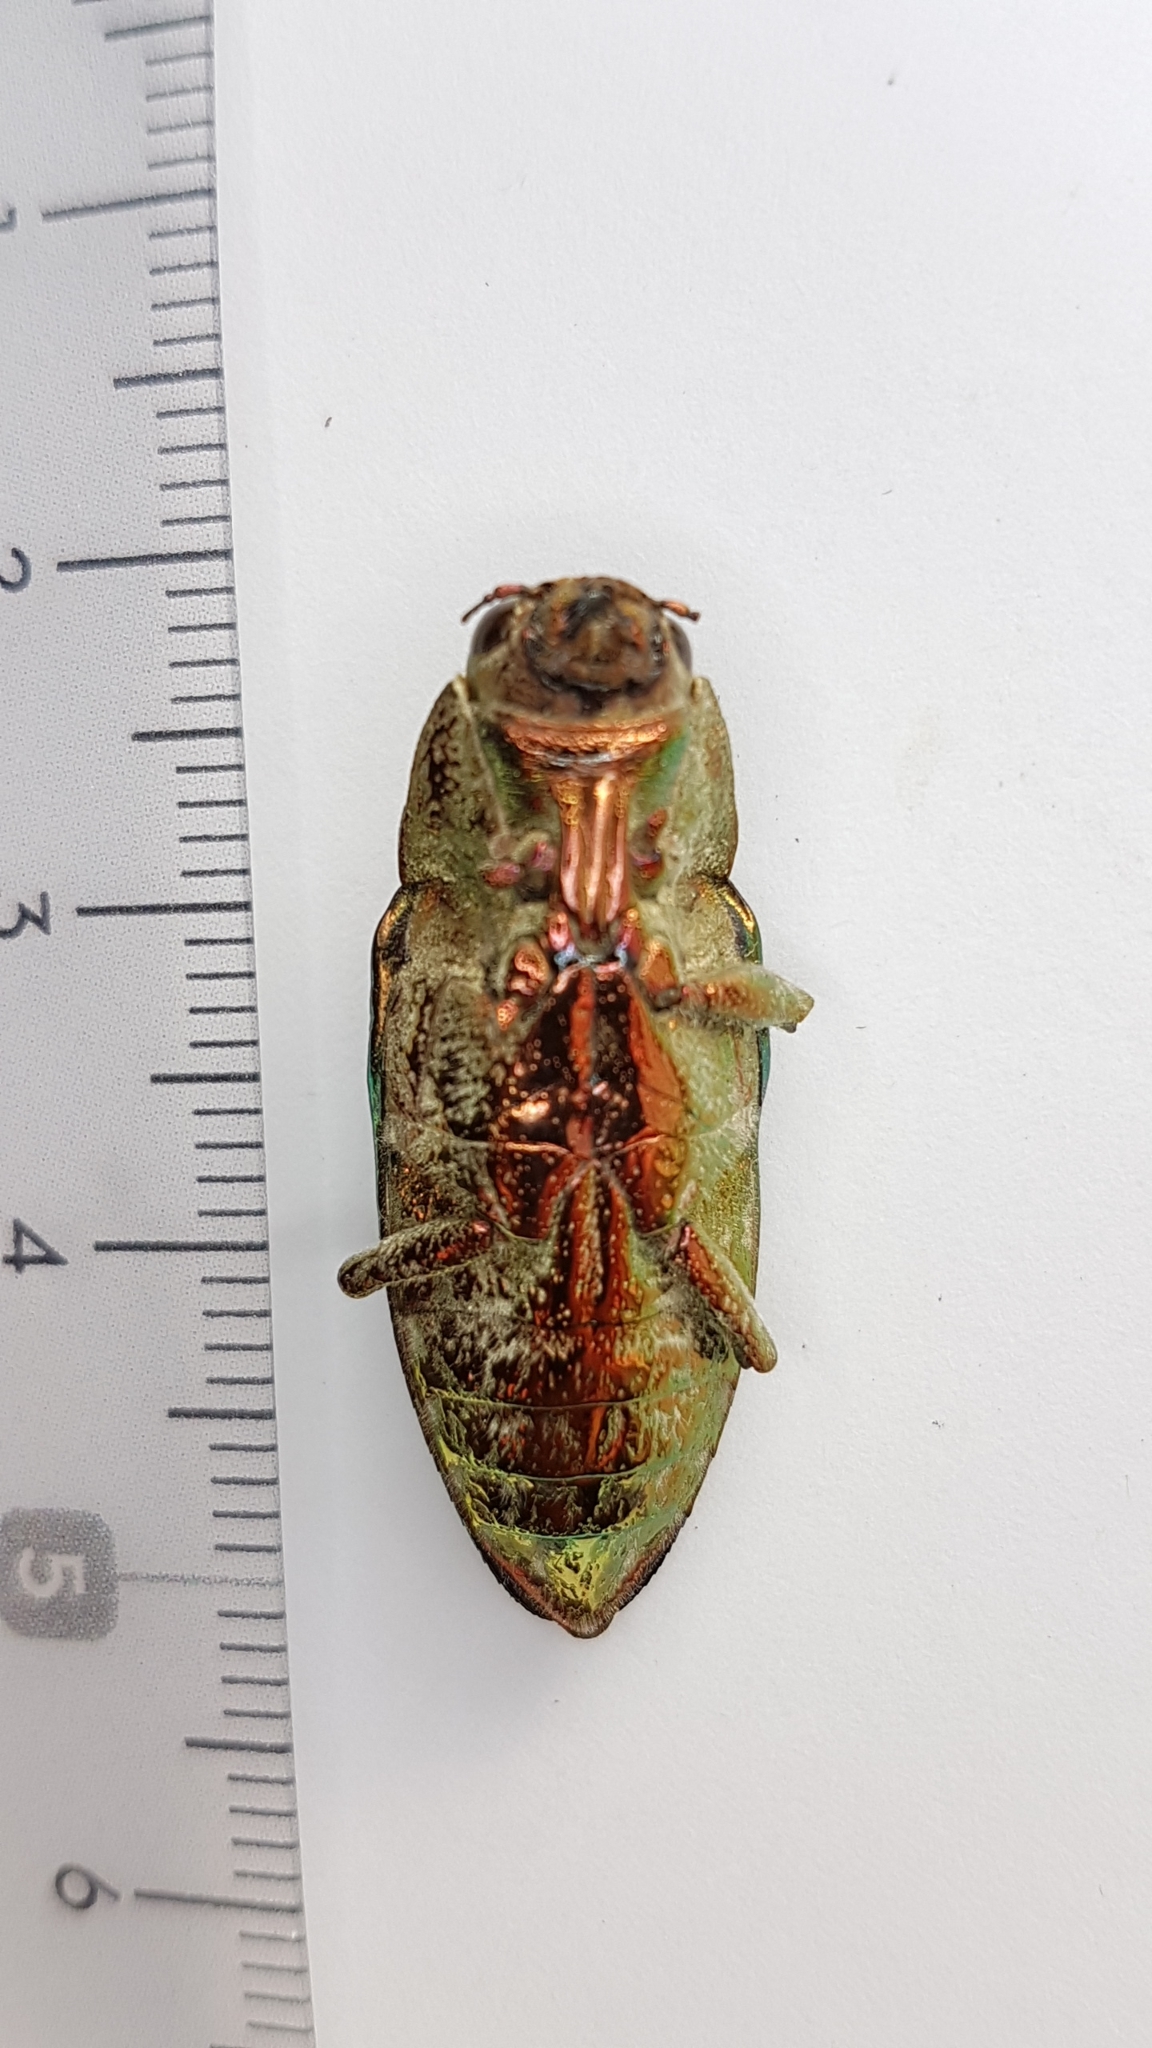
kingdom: Animalia
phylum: Arthropoda
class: Insecta
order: Coleoptera
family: Buprestidae
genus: Chalcophora
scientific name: Chalcophora massiliensis
